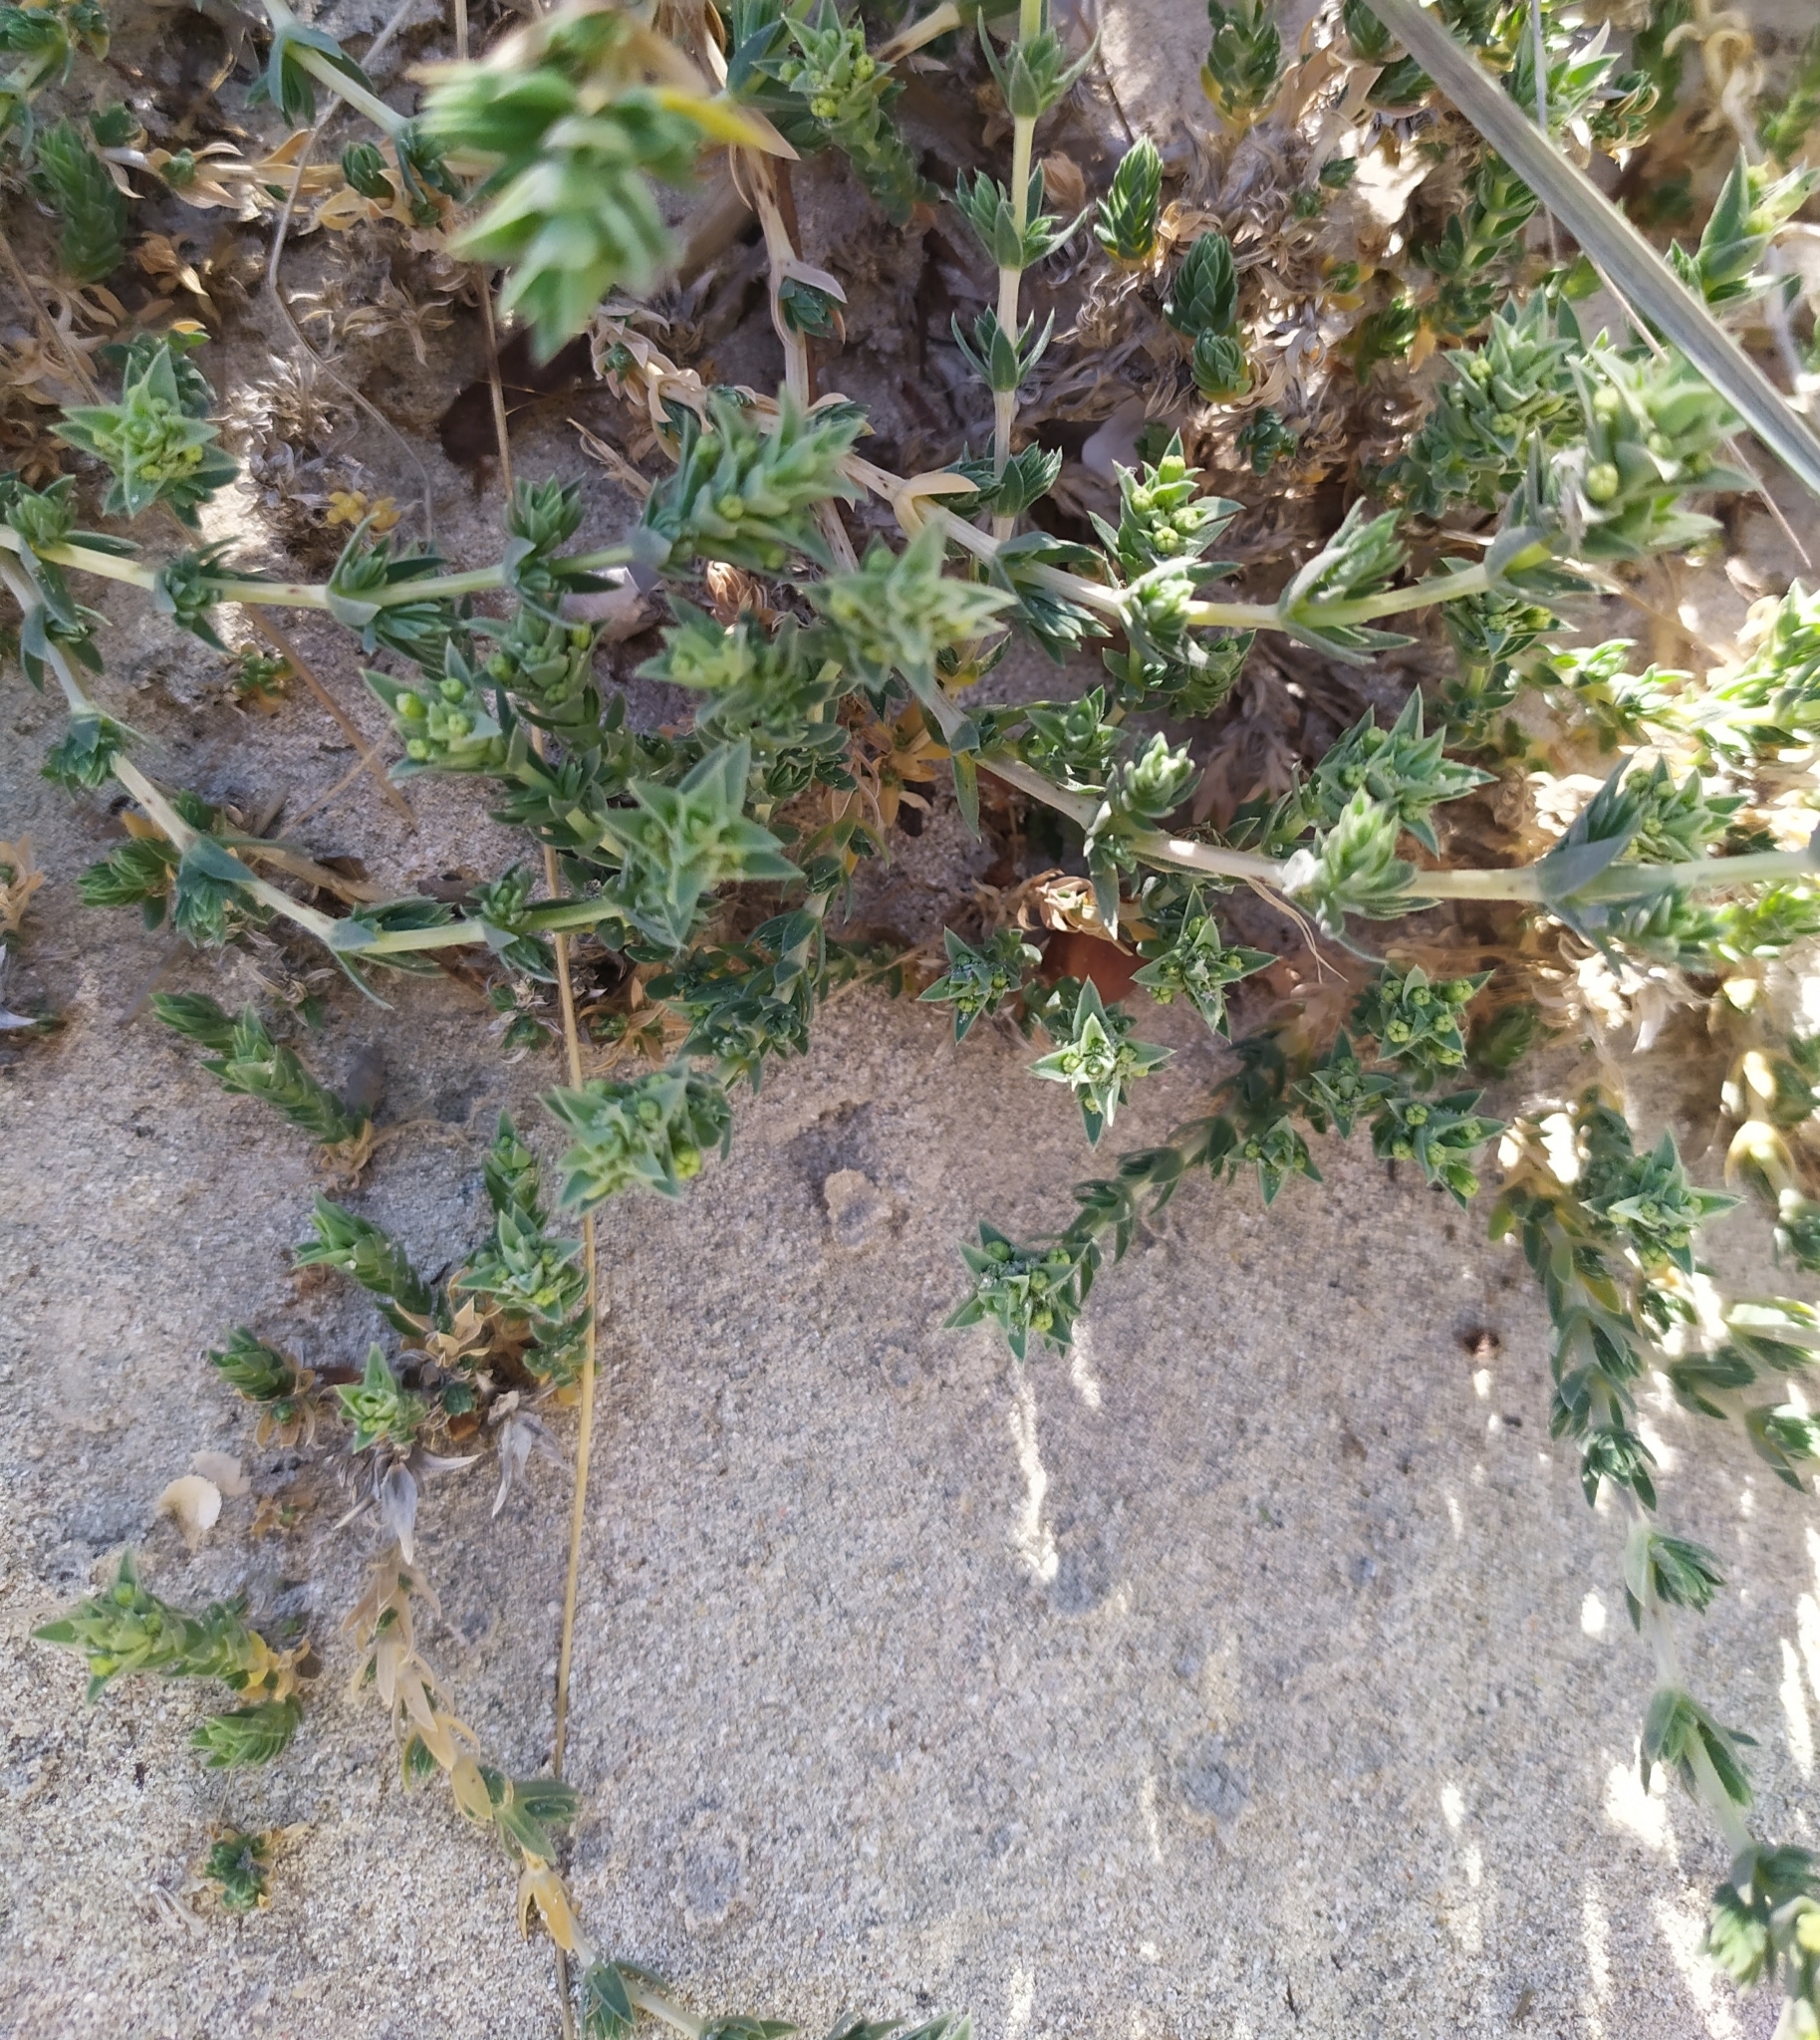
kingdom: Plantae
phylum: Tracheophyta
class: Magnoliopsida
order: Gentianales
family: Rubiaceae
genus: Crucianella
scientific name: Crucianella maritima
